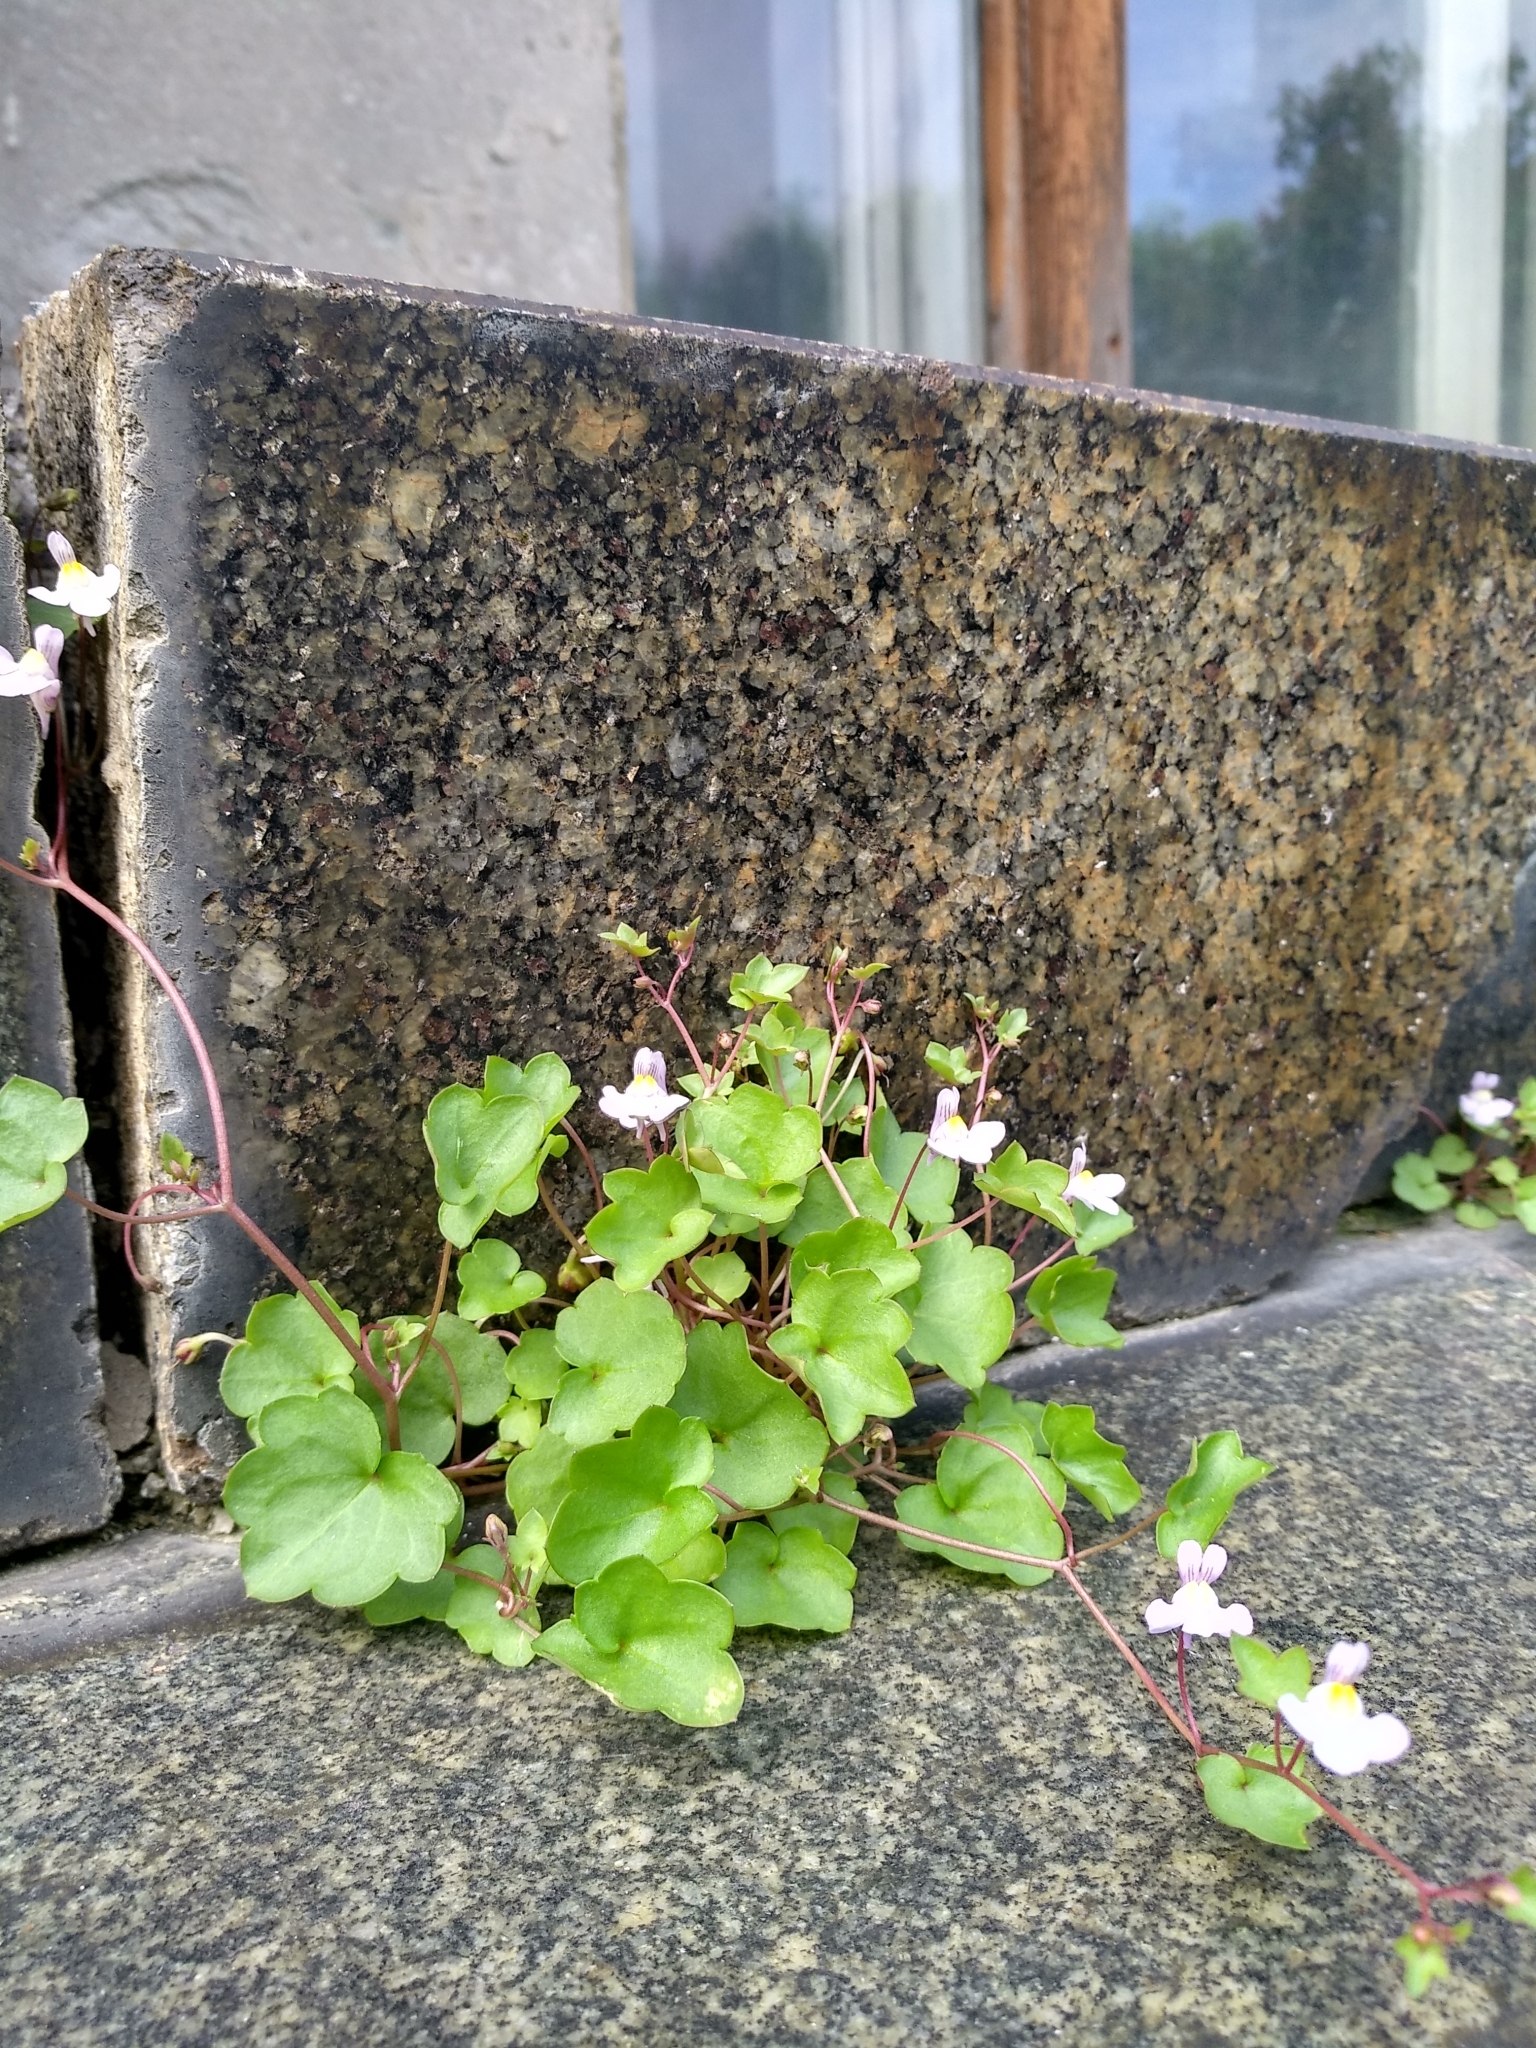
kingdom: Plantae
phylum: Tracheophyta
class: Magnoliopsida
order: Lamiales
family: Plantaginaceae
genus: Cymbalaria
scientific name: Cymbalaria muralis
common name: Ivy-leaved toadflax
